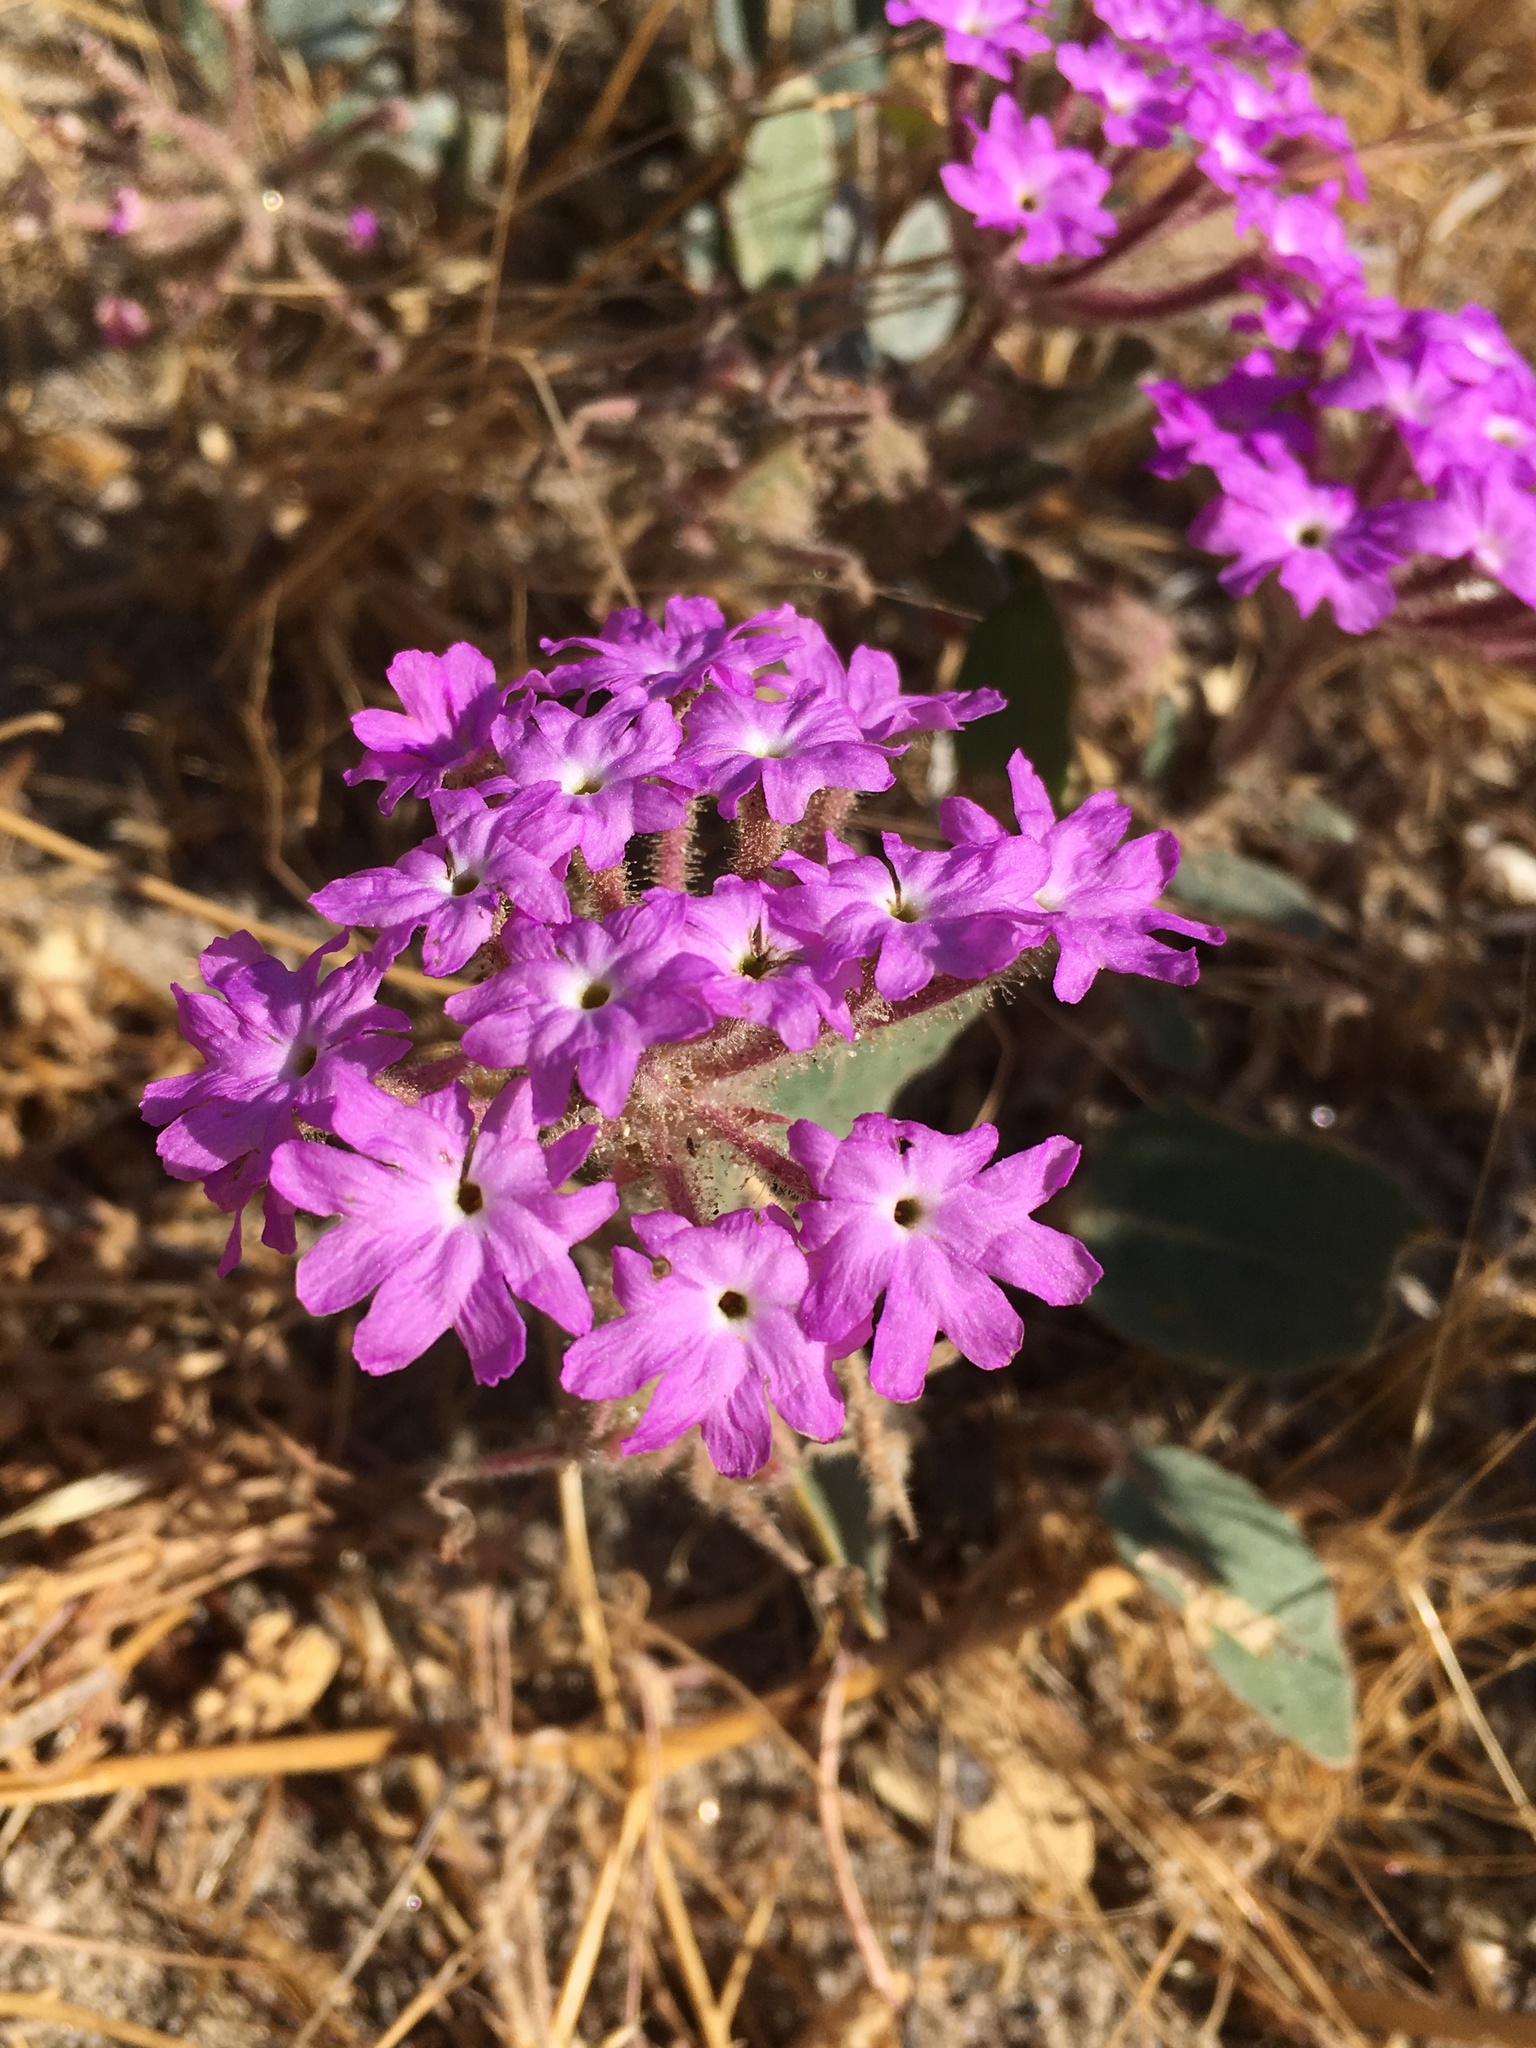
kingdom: Plantae
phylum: Tracheophyta
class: Magnoliopsida
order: Caryophyllales
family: Nyctaginaceae
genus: Abronia
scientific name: Abronia villosa
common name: Desert sand-verbena
